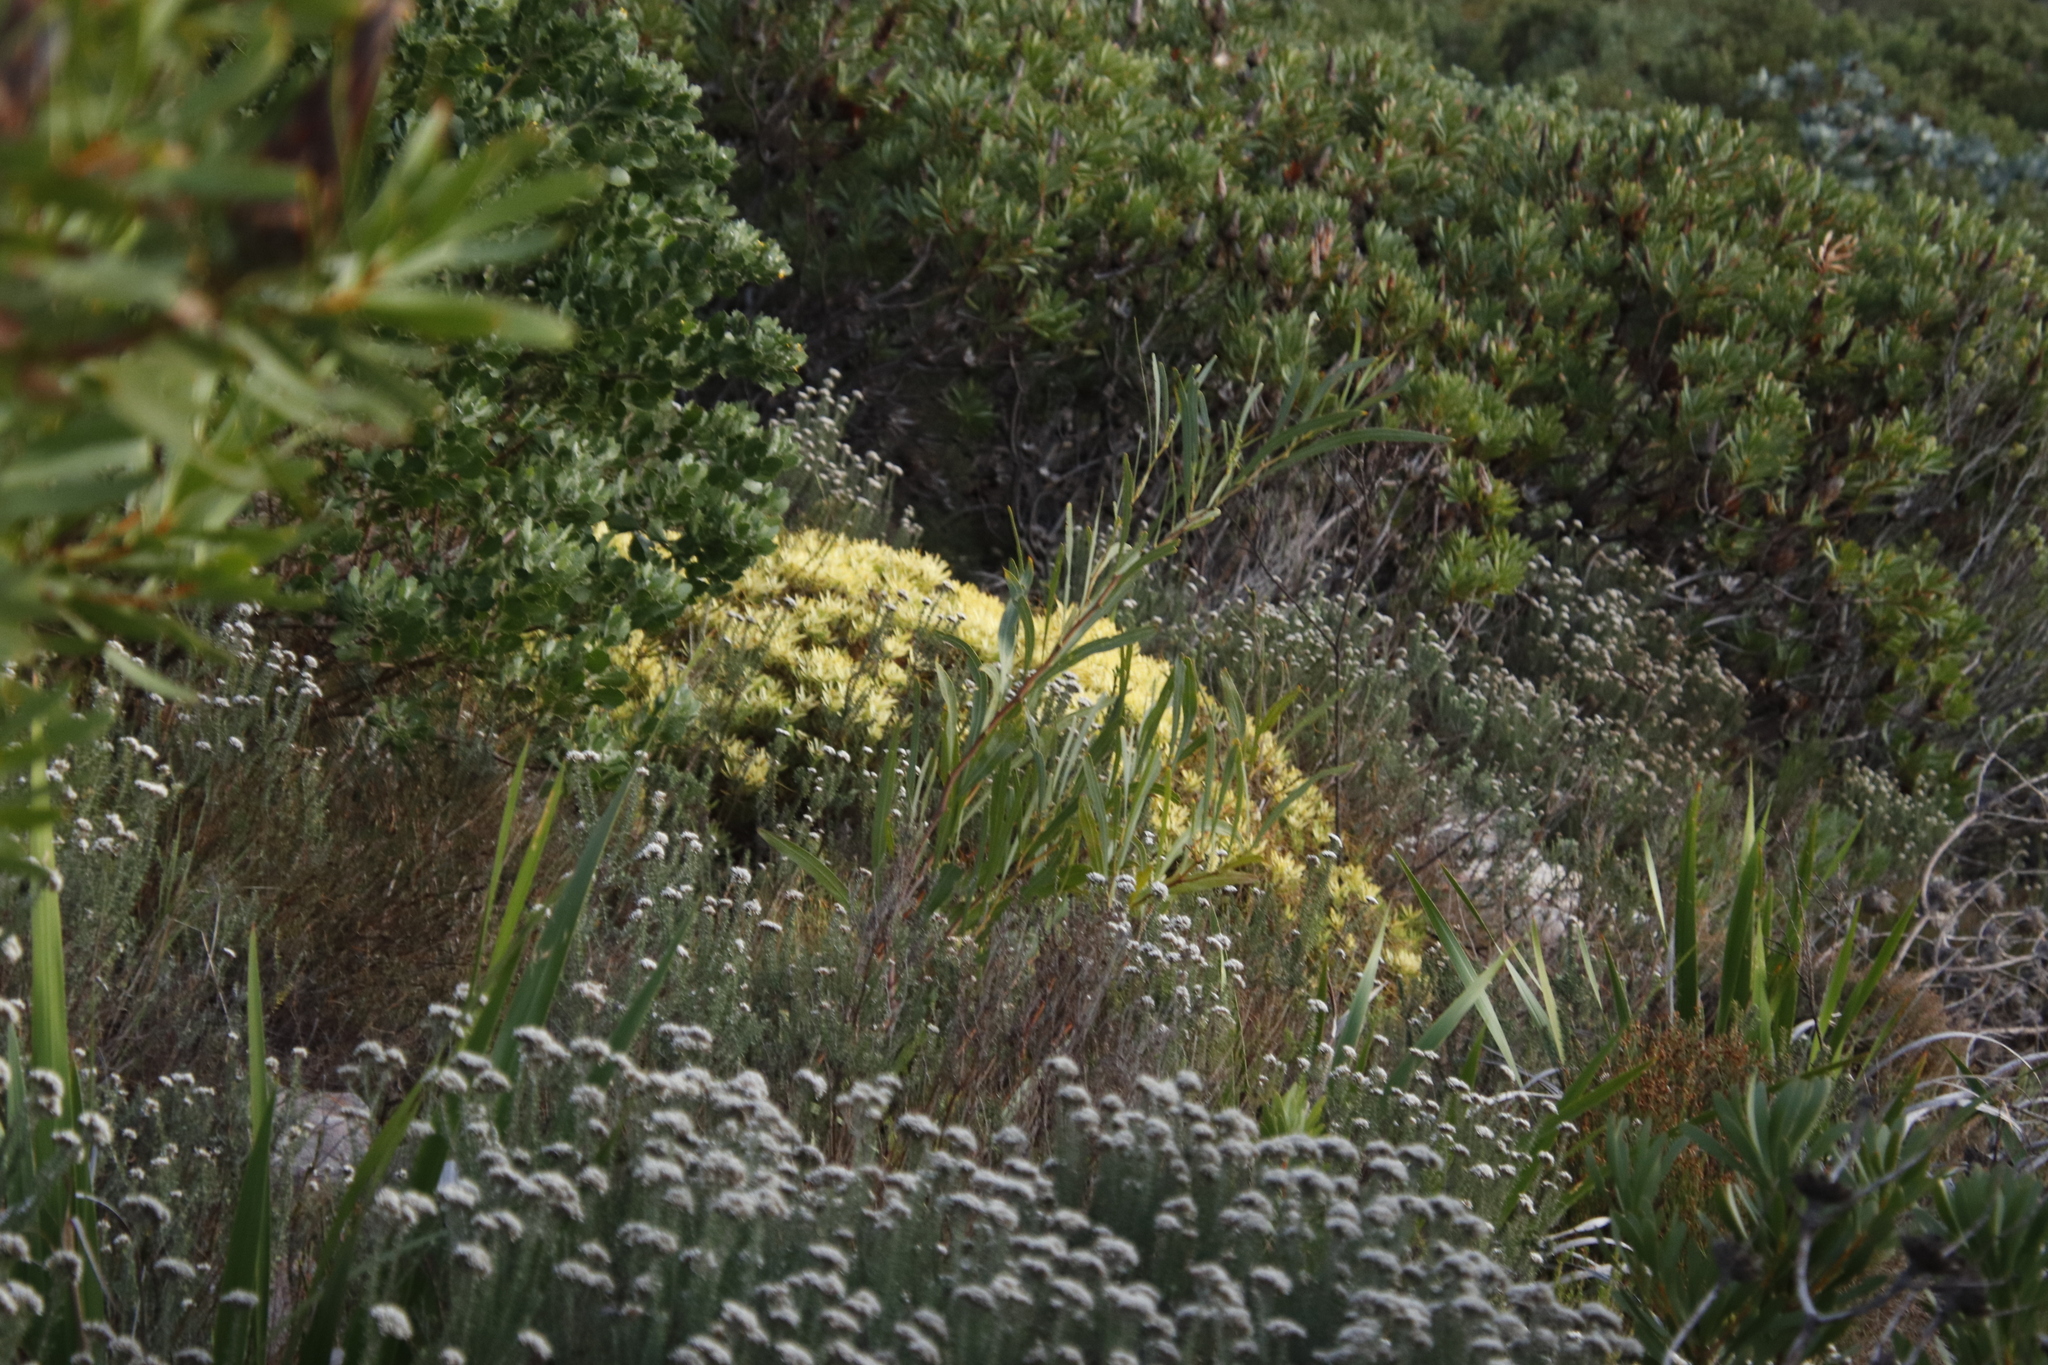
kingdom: Plantae
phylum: Tracheophyta
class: Magnoliopsida
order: Proteales
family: Proteaceae
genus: Leucadendron
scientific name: Leucadendron salignum
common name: Common sunshine conebush
